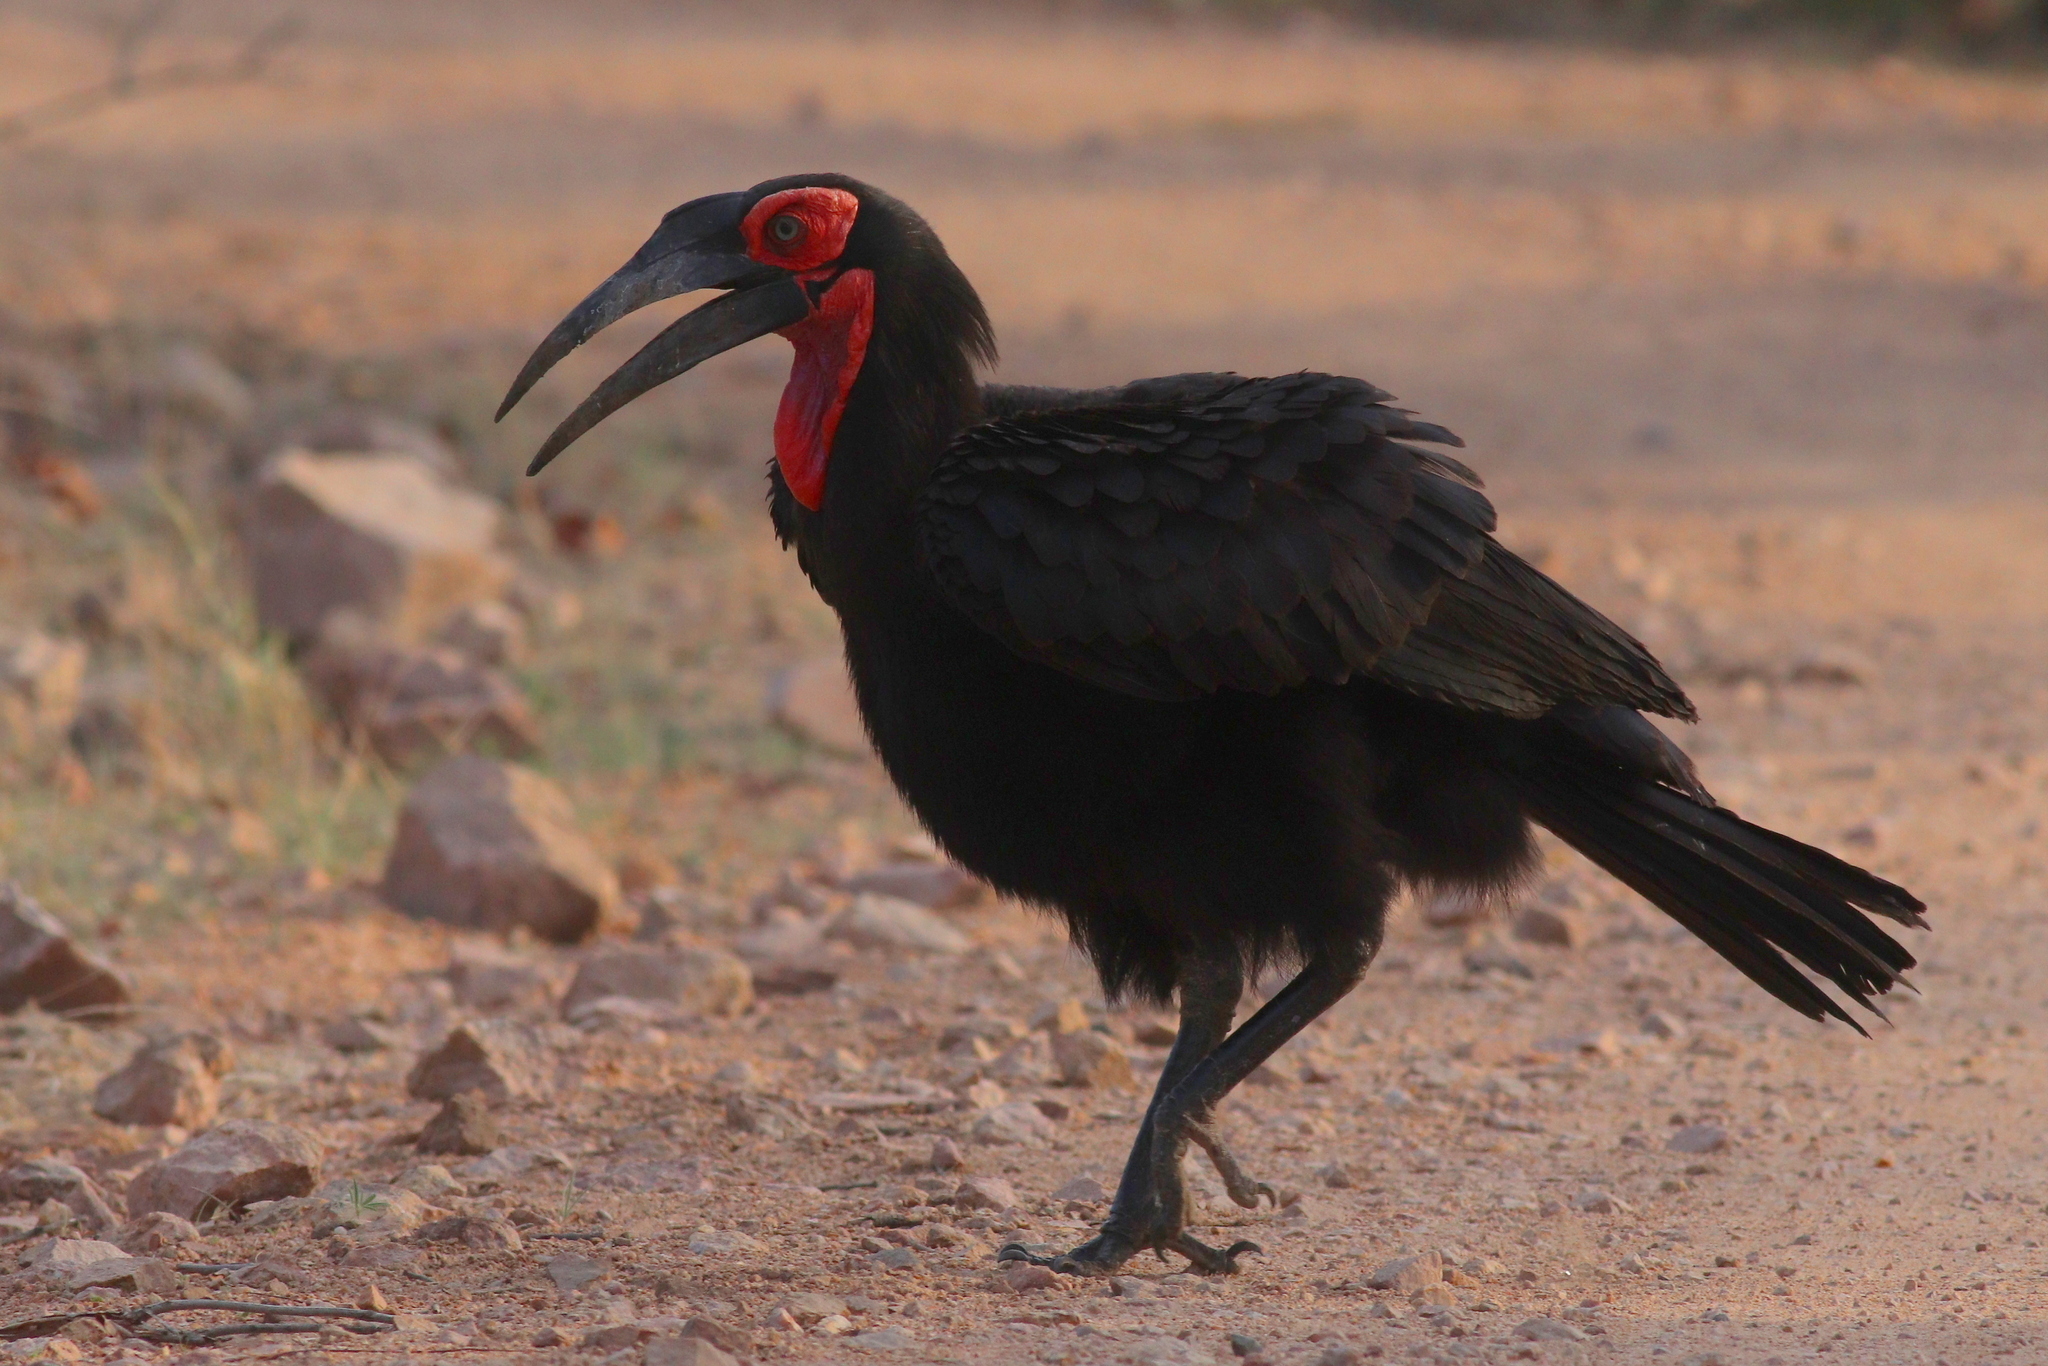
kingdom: Animalia
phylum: Chordata
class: Aves
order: Bucerotiformes
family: Bucorvidae
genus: Bucorvus
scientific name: Bucorvus leadbeateri
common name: Southern ground-hornbill
